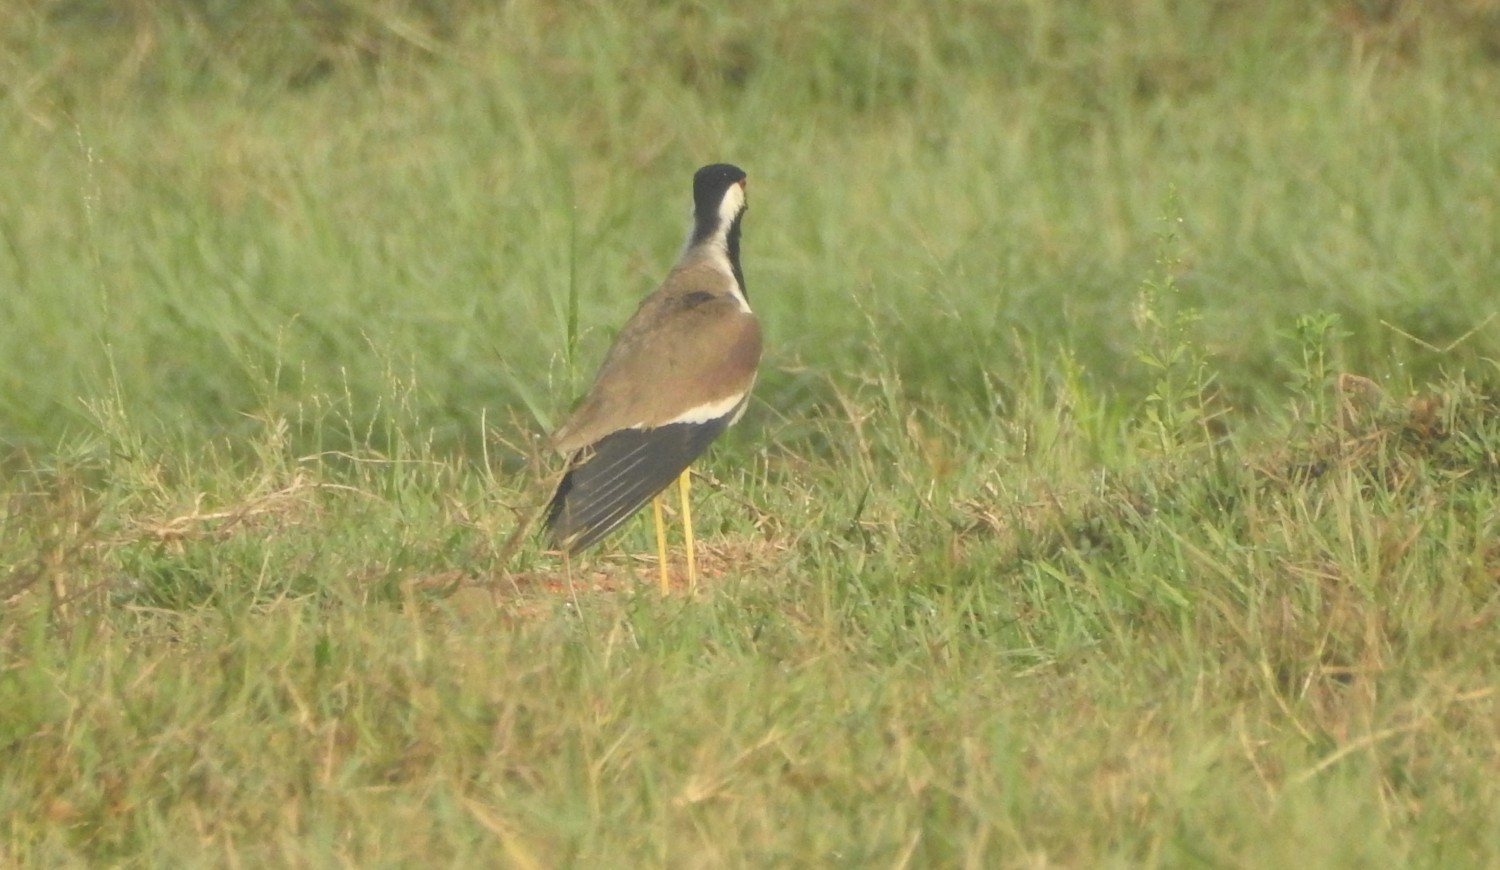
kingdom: Animalia
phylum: Chordata
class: Aves
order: Charadriiformes
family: Charadriidae
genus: Vanellus
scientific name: Vanellus indicus
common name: Red-wattled lapwing
